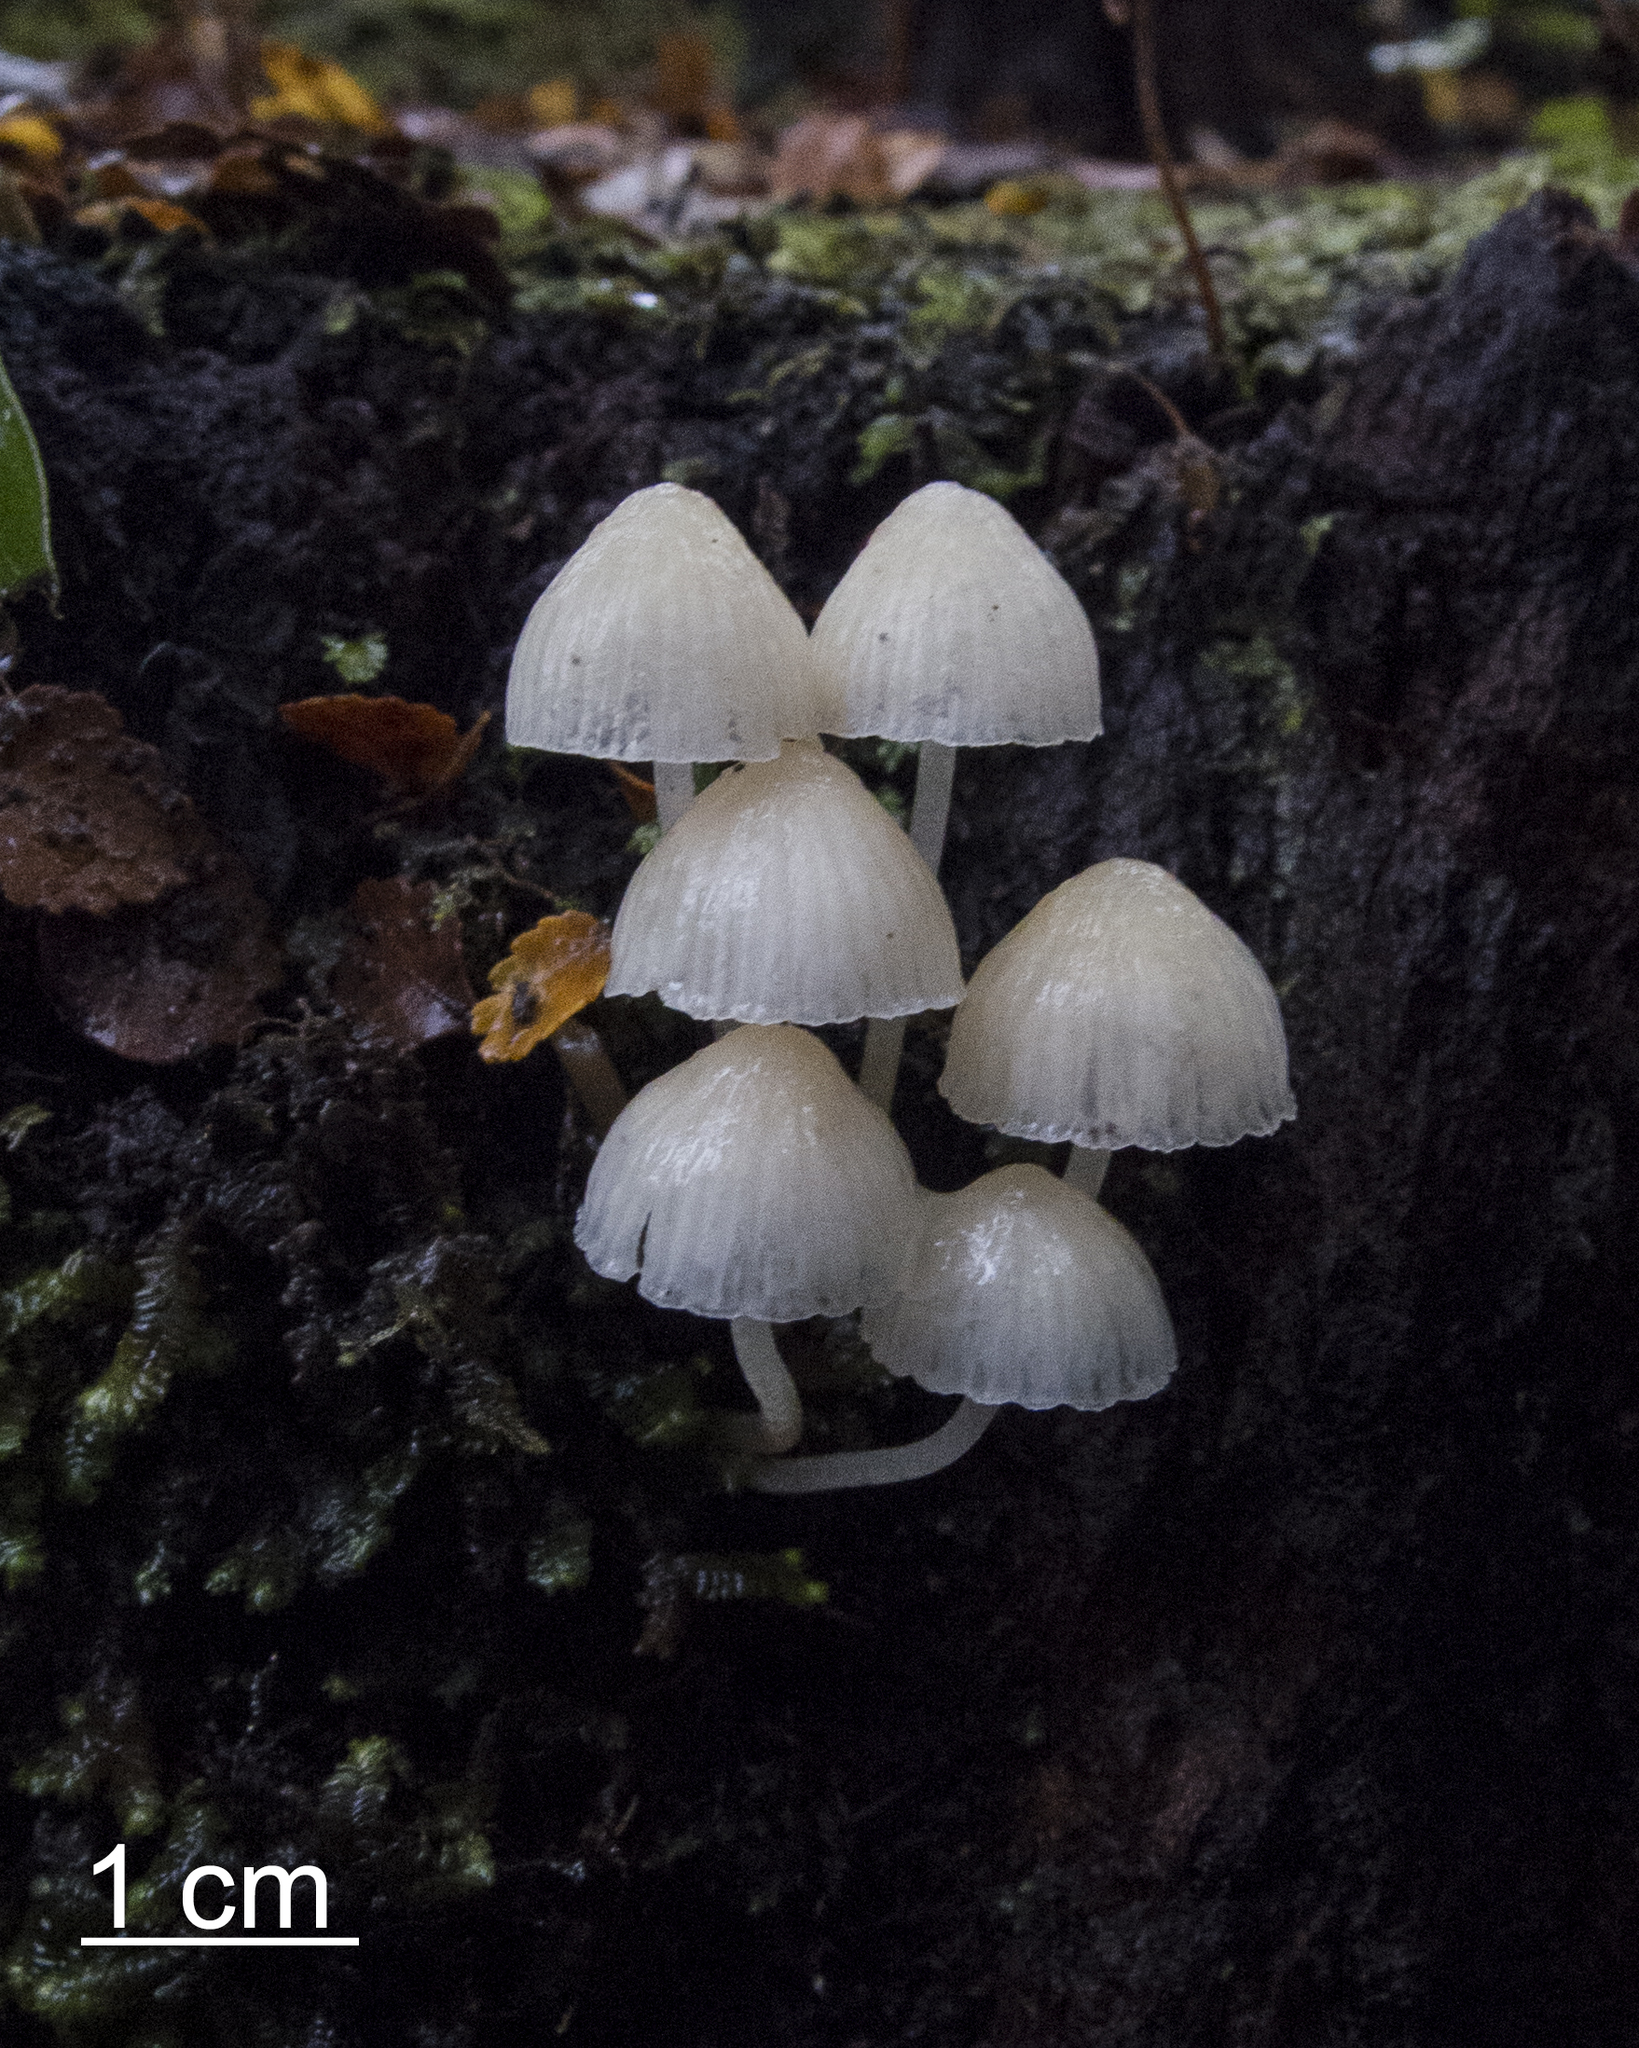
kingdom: Fungi
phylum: Basidiomycota
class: Agaricomycetes
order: Agaricales
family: Mycenaceae
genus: Mycena
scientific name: Mycena morris-jonesii
